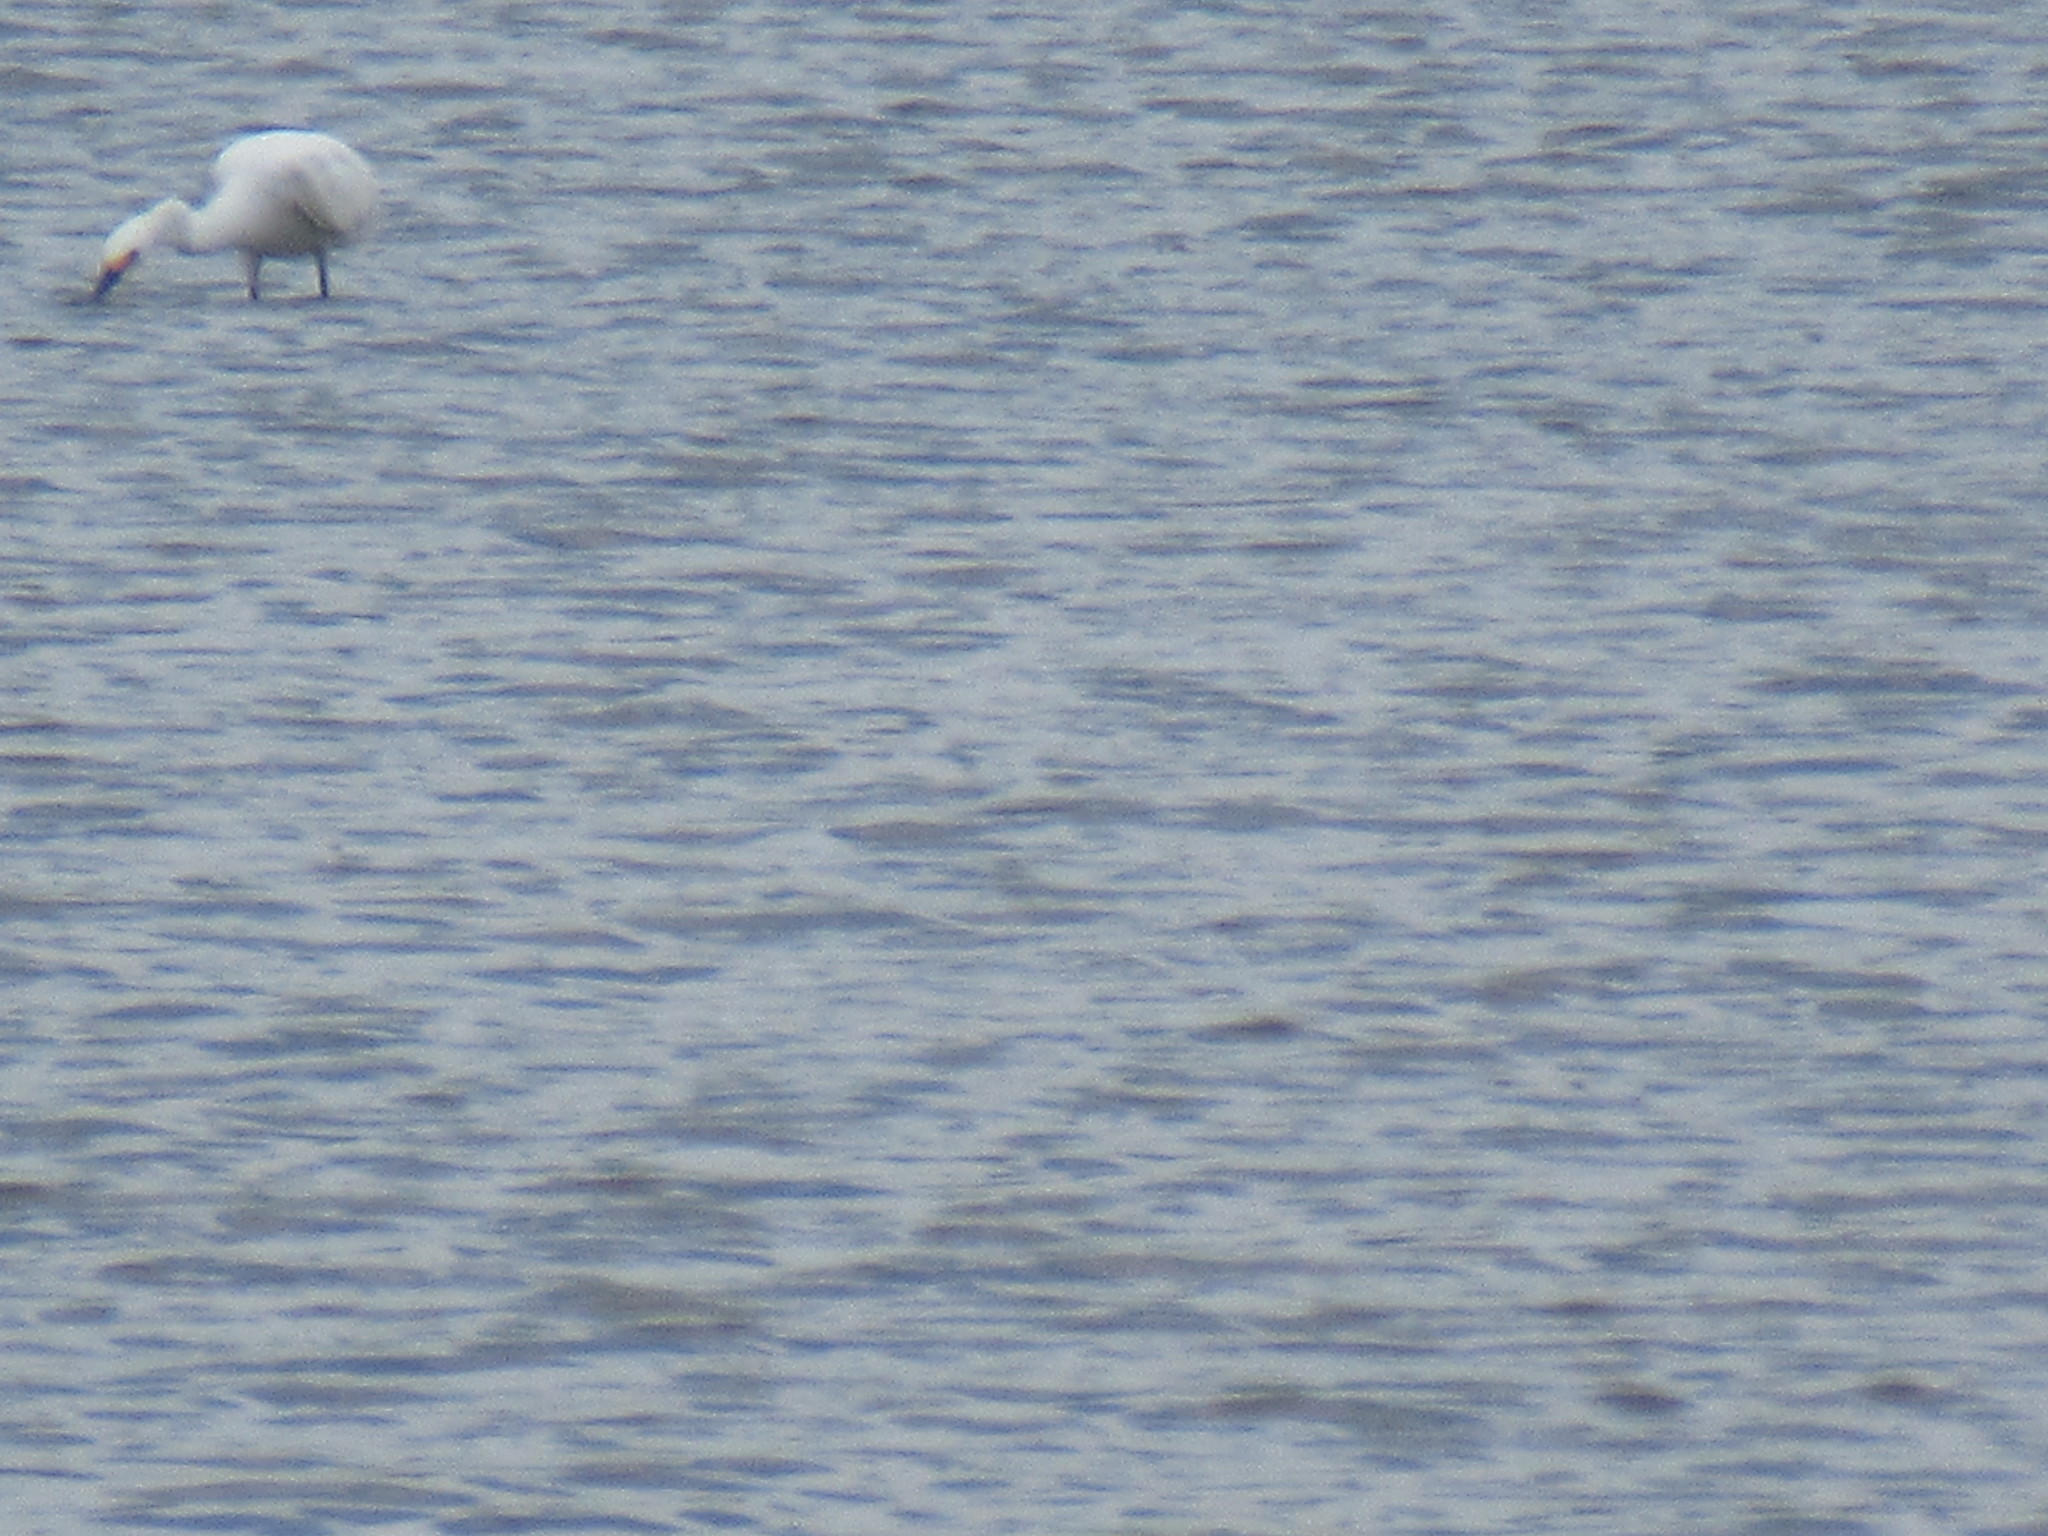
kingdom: Animalia
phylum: Chordata
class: Aves
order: Pelecaniformes
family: Ardeidae
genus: Egretta
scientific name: Egretta thula
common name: Snowy egret
